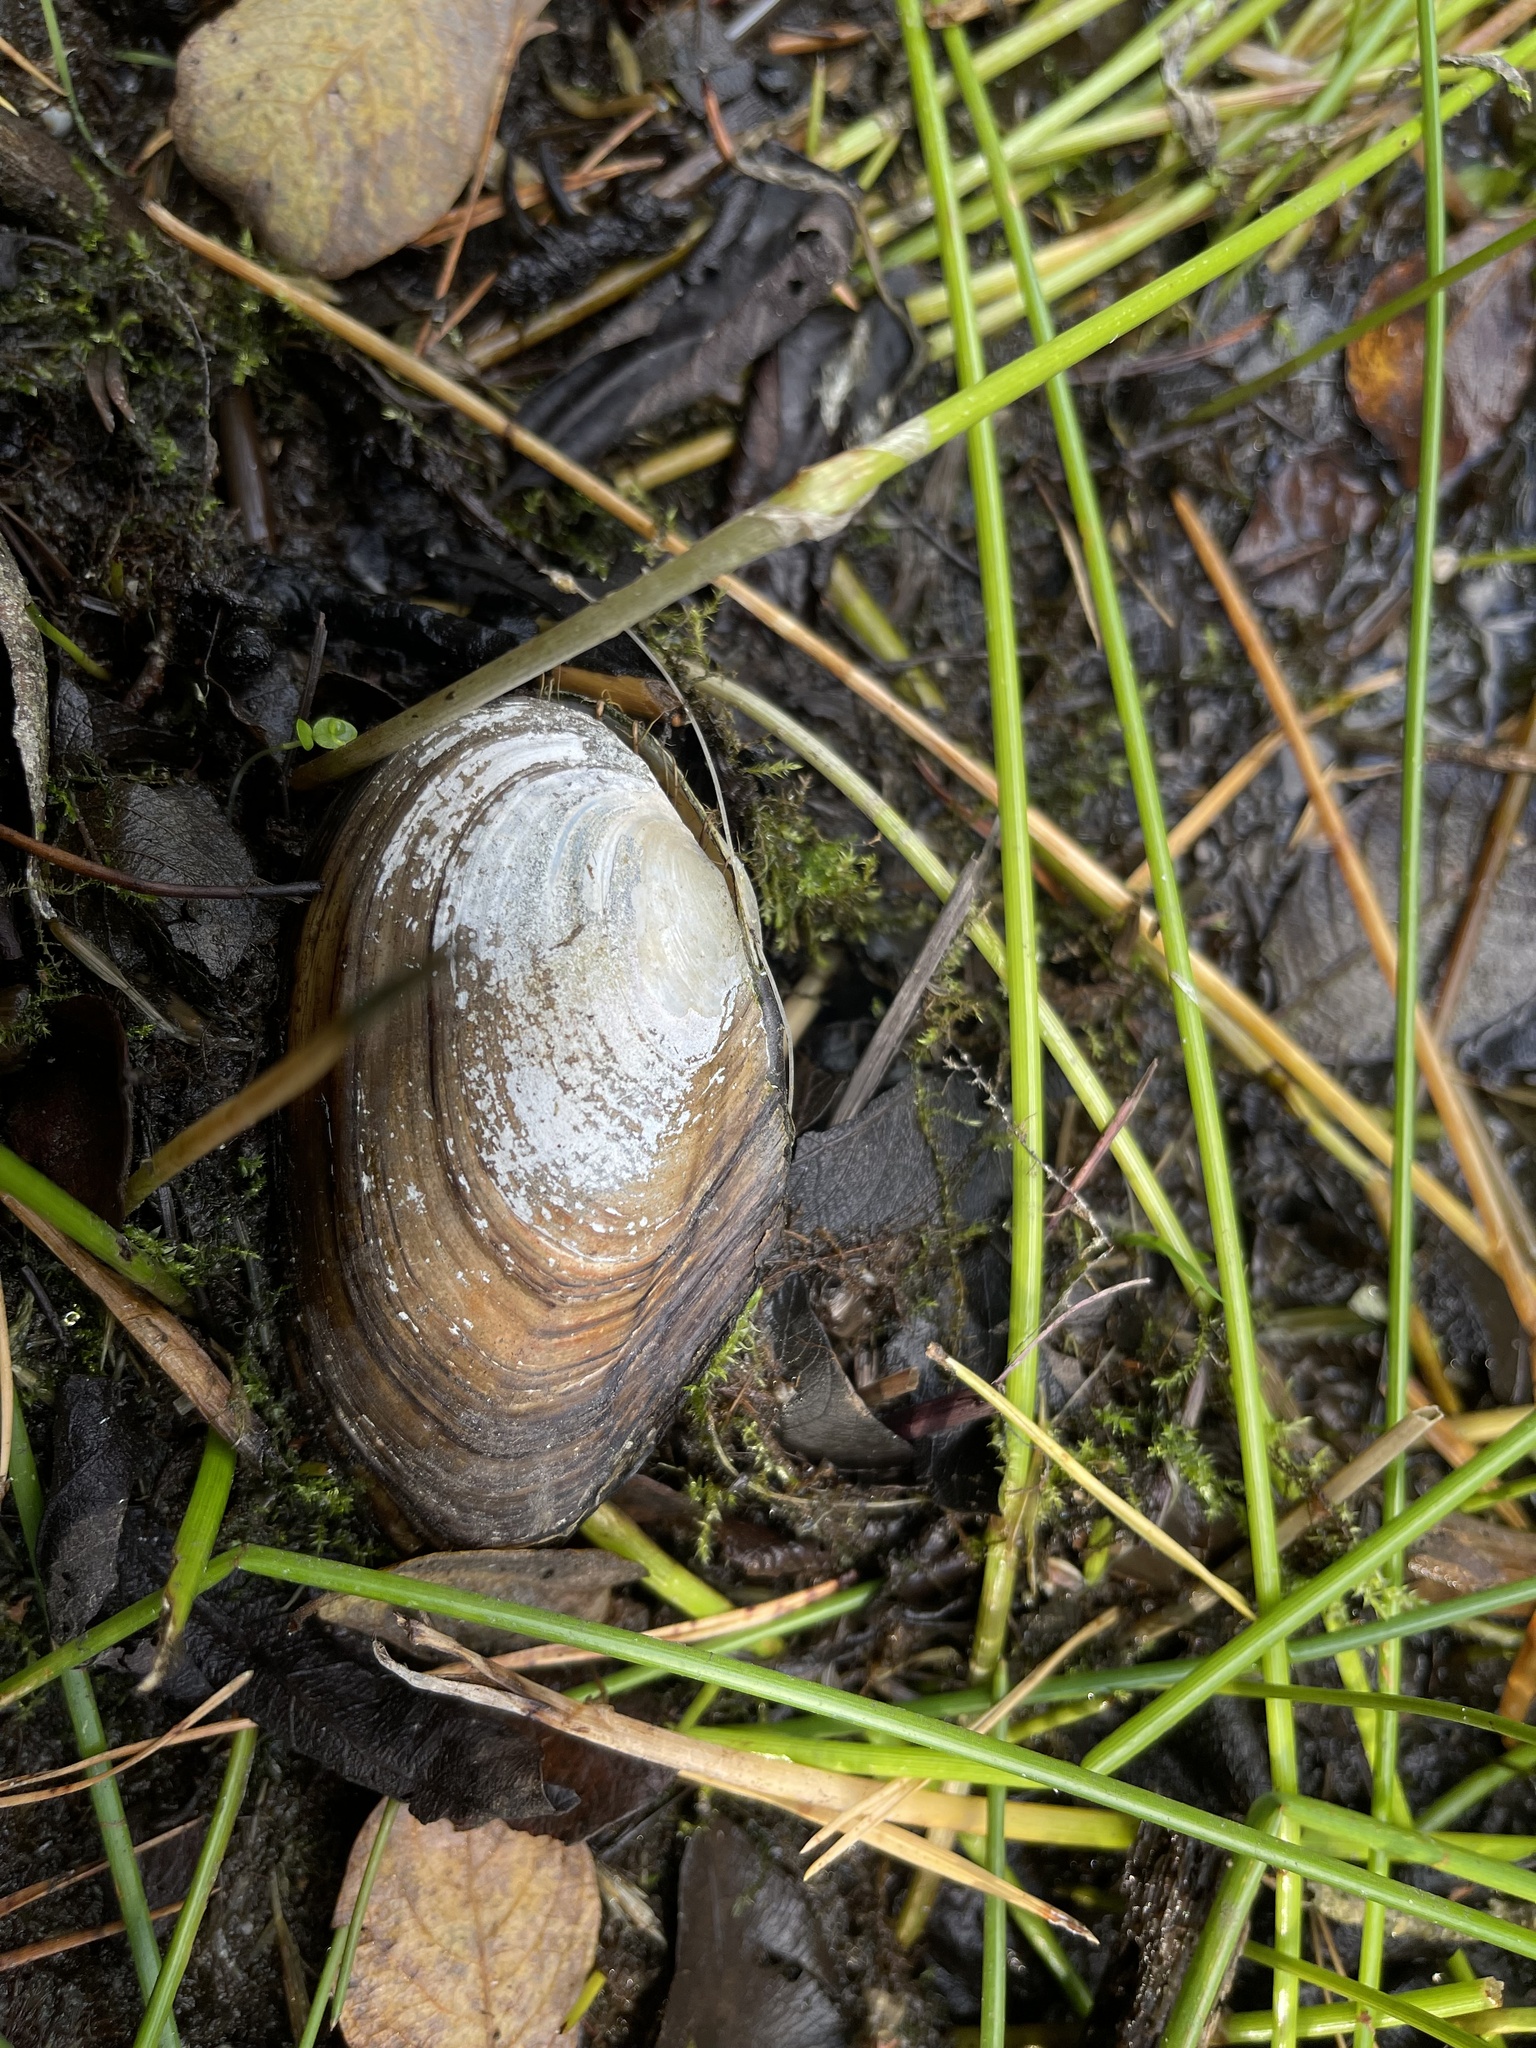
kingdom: Animalia
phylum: Mollusca
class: Bivalvia
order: Unionida
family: Unionidae
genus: Anodonta
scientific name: Anodonta anatina
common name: Duck mussel
